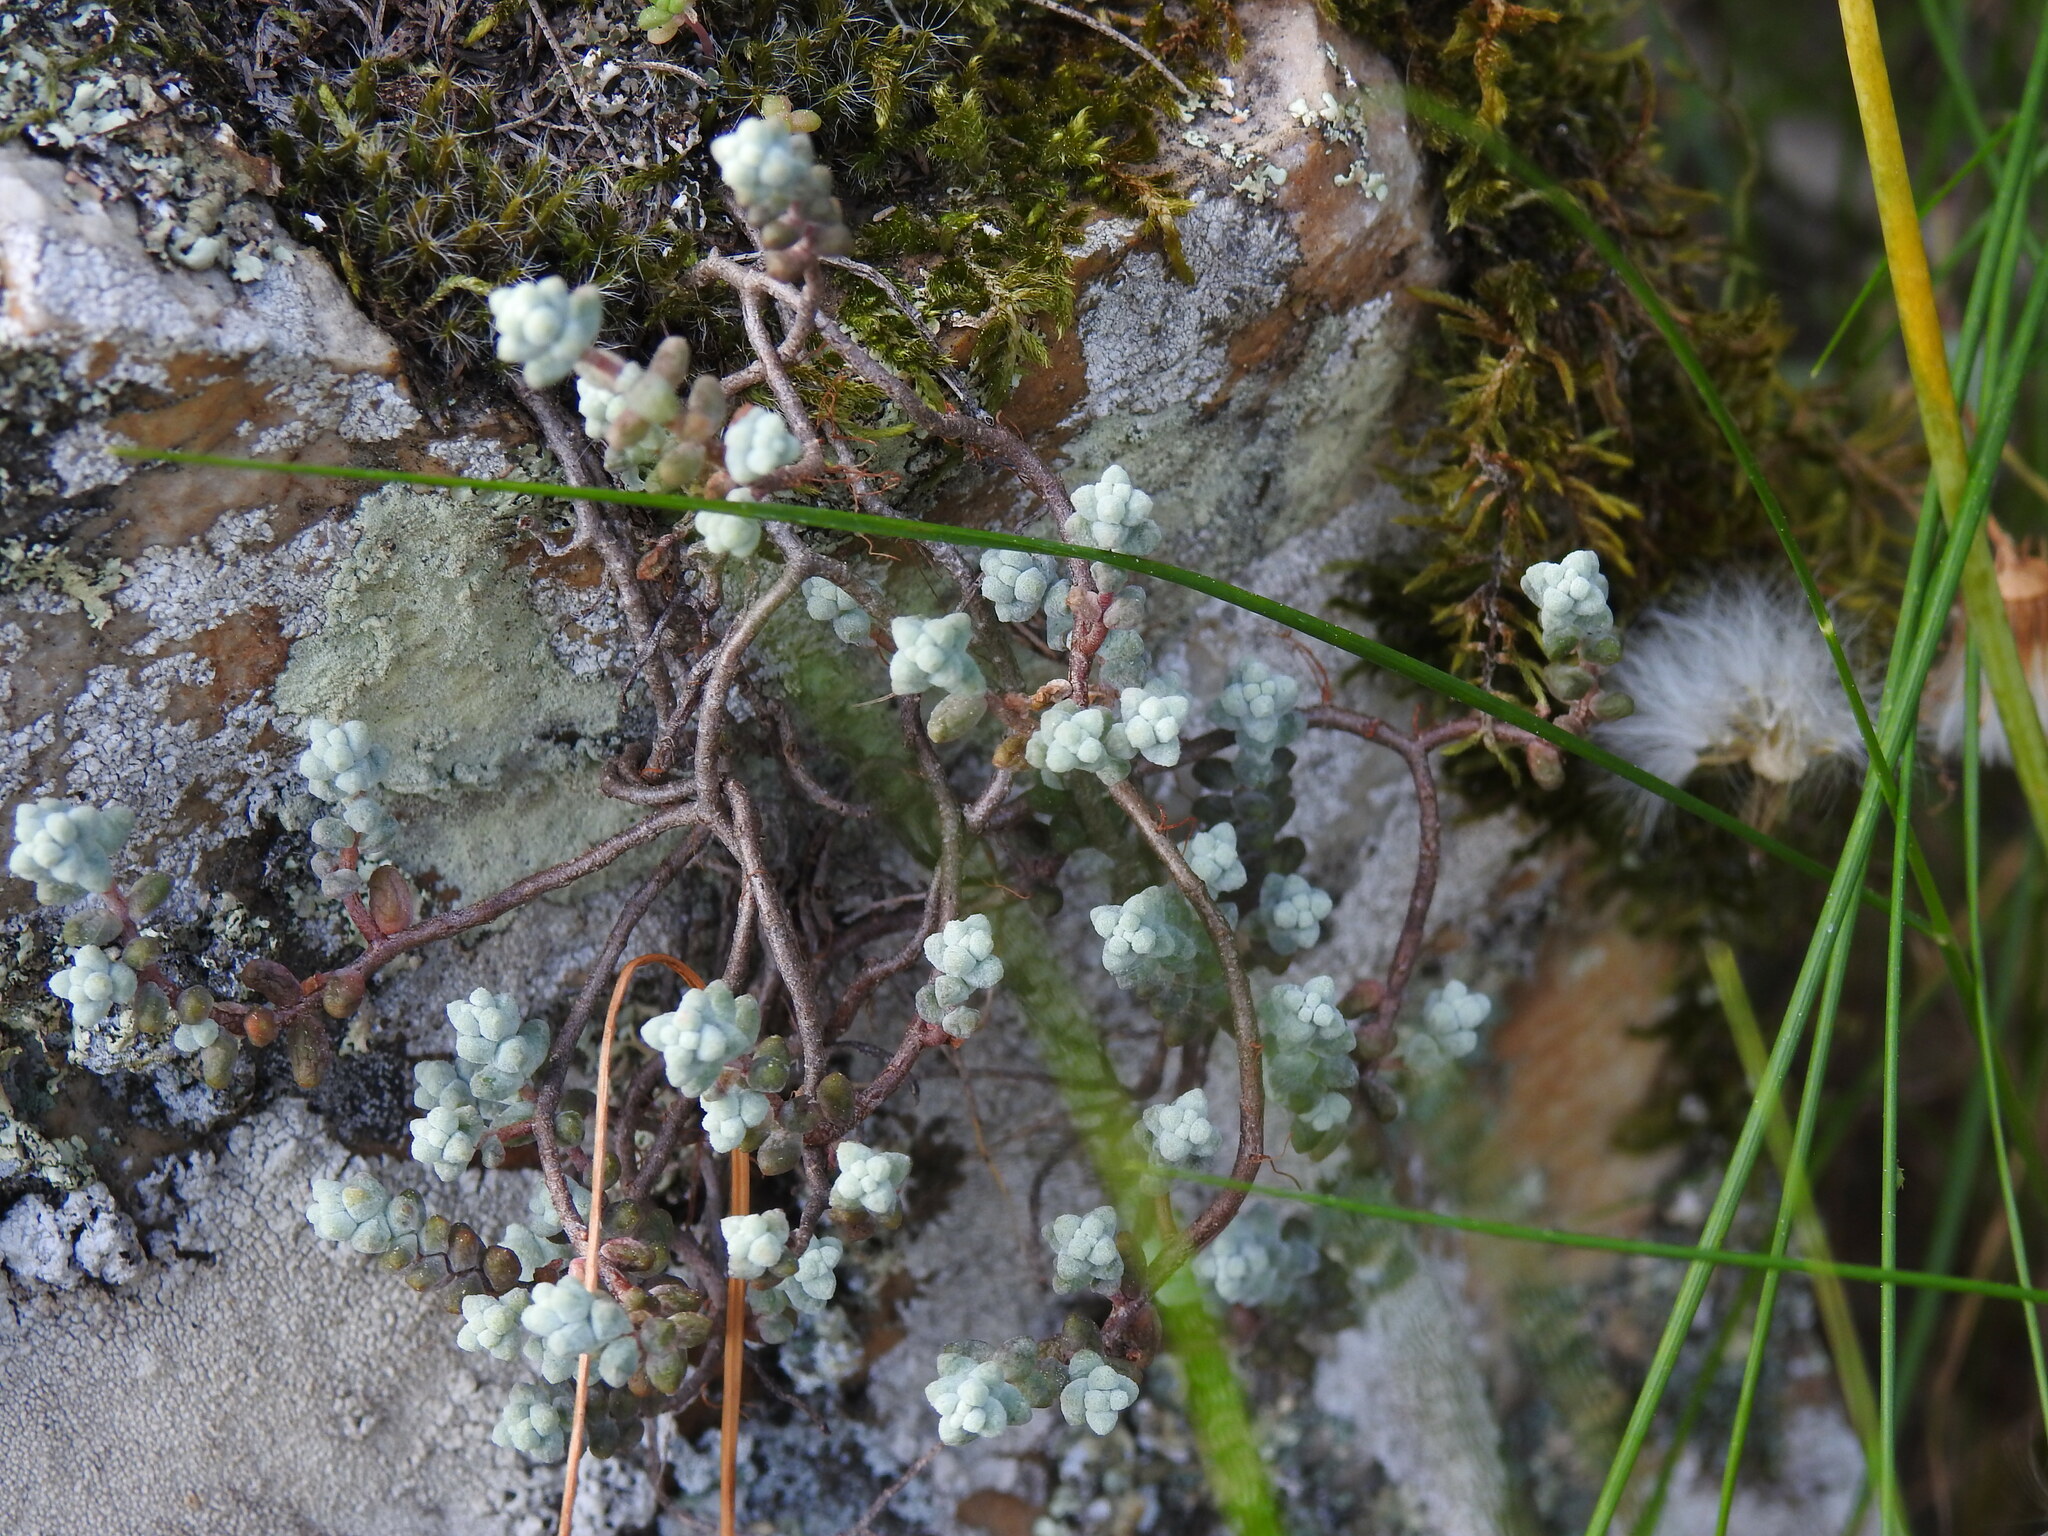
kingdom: Plantae
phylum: Tracheophyta
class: Magnoliopsida
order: Saxifragales
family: Crassulaceae
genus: Sedum
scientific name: Sedum brevifolium
